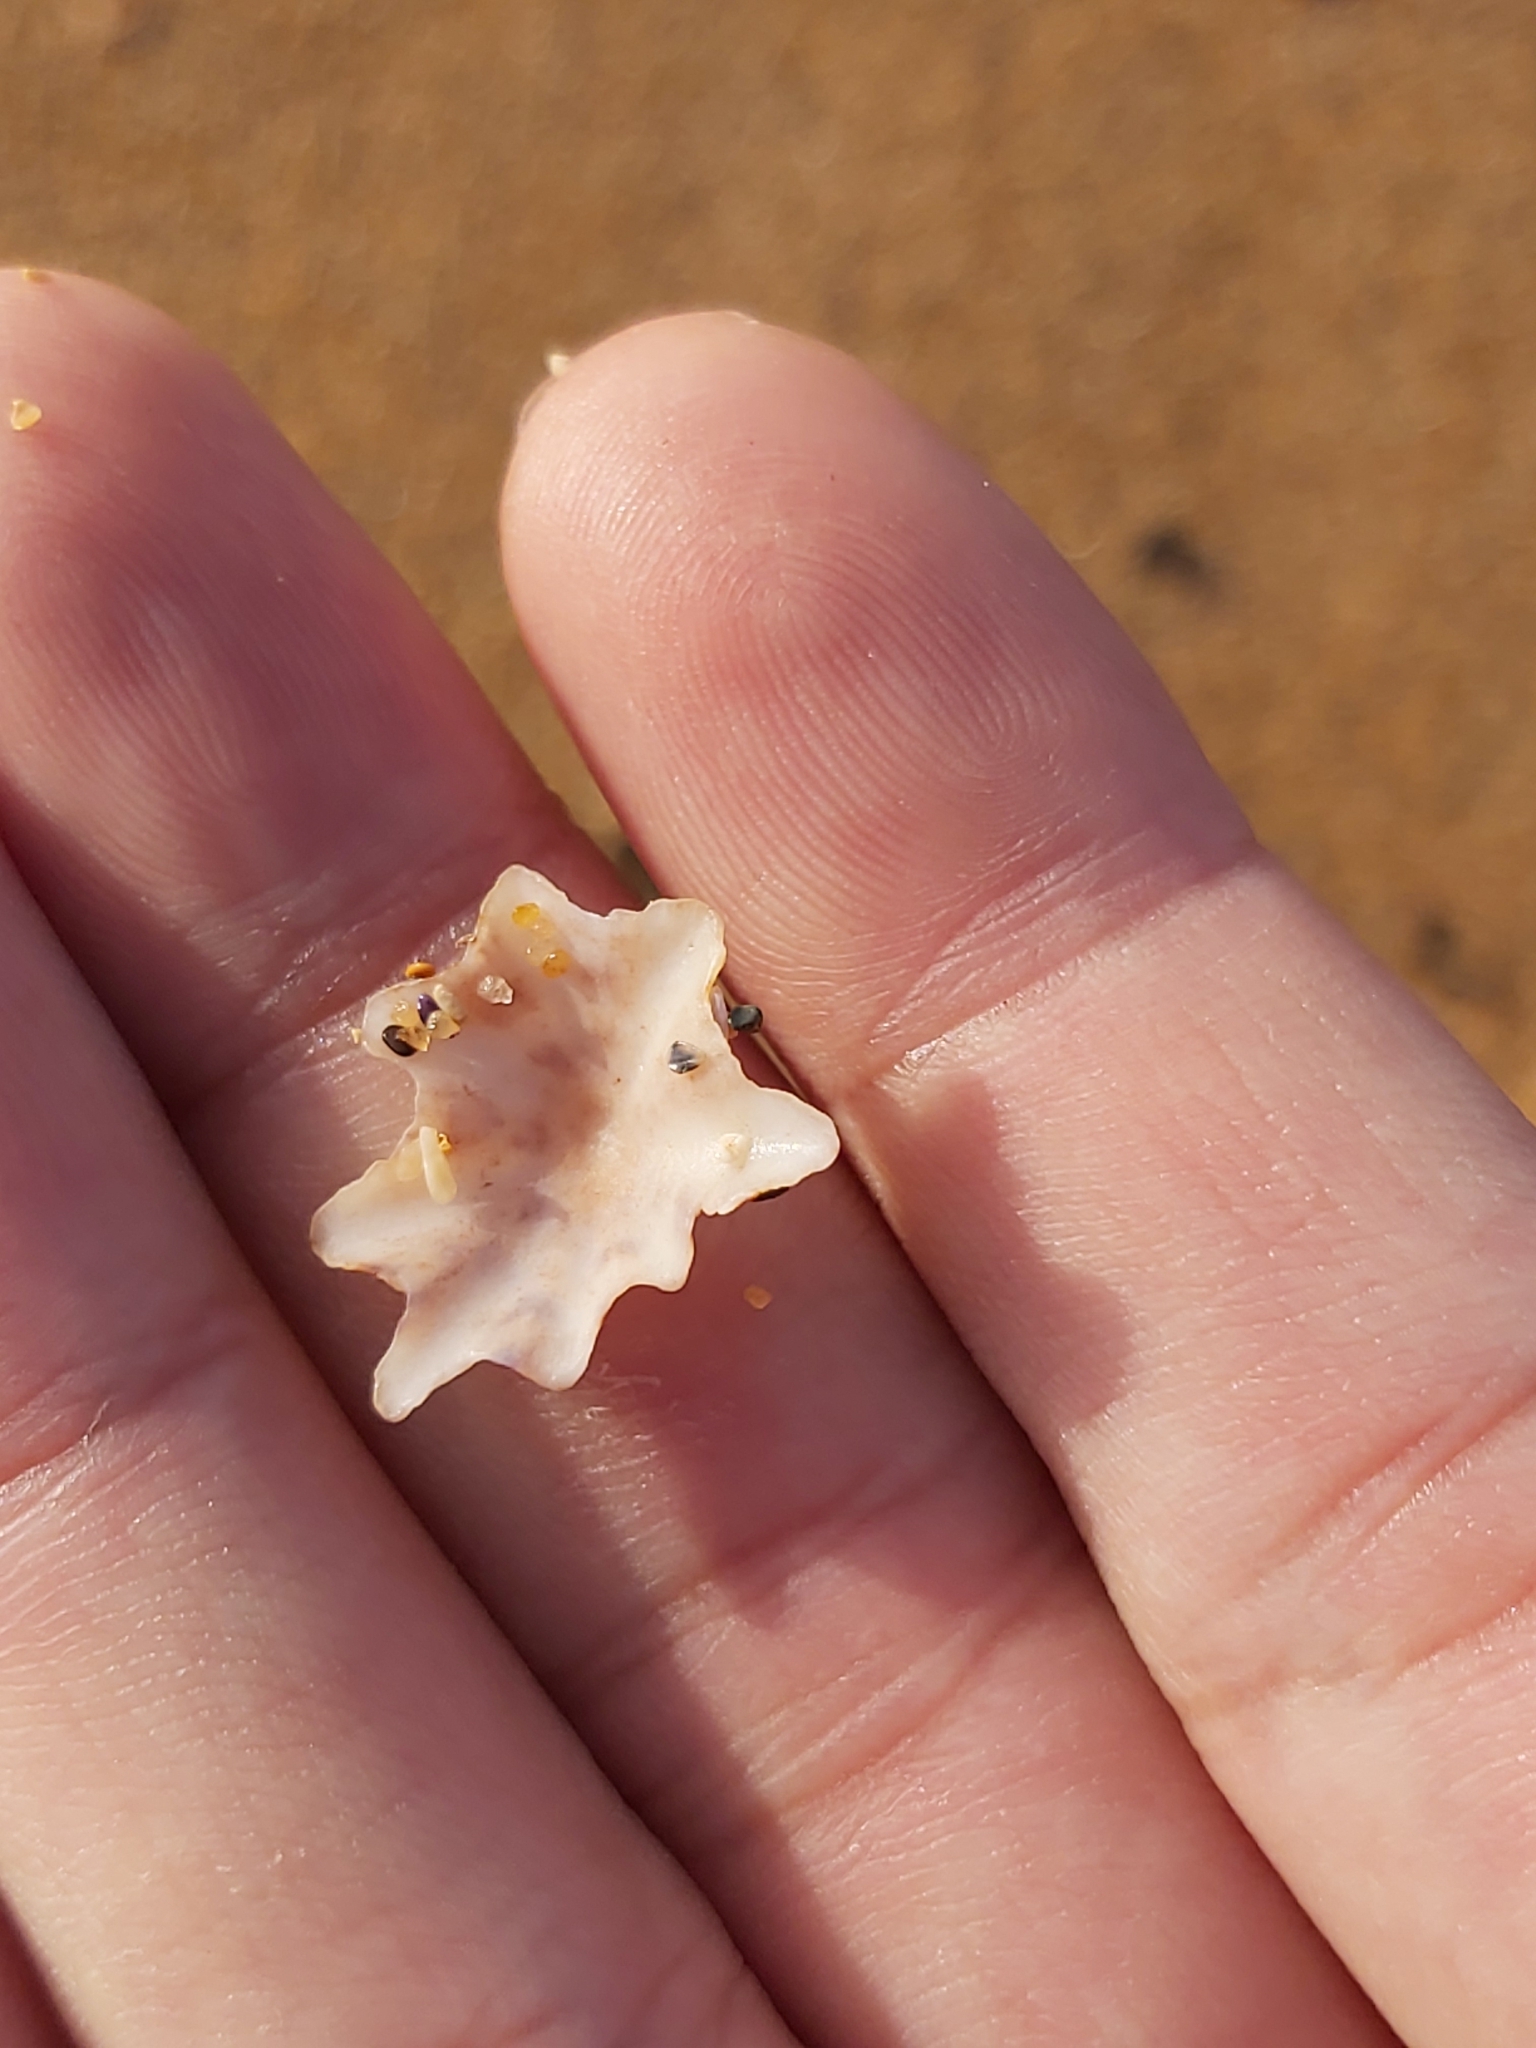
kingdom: Animalia
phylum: Mollusca
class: Gastropoda
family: Patellidae
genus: Scutellastra
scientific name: Scutellastra chapmani
